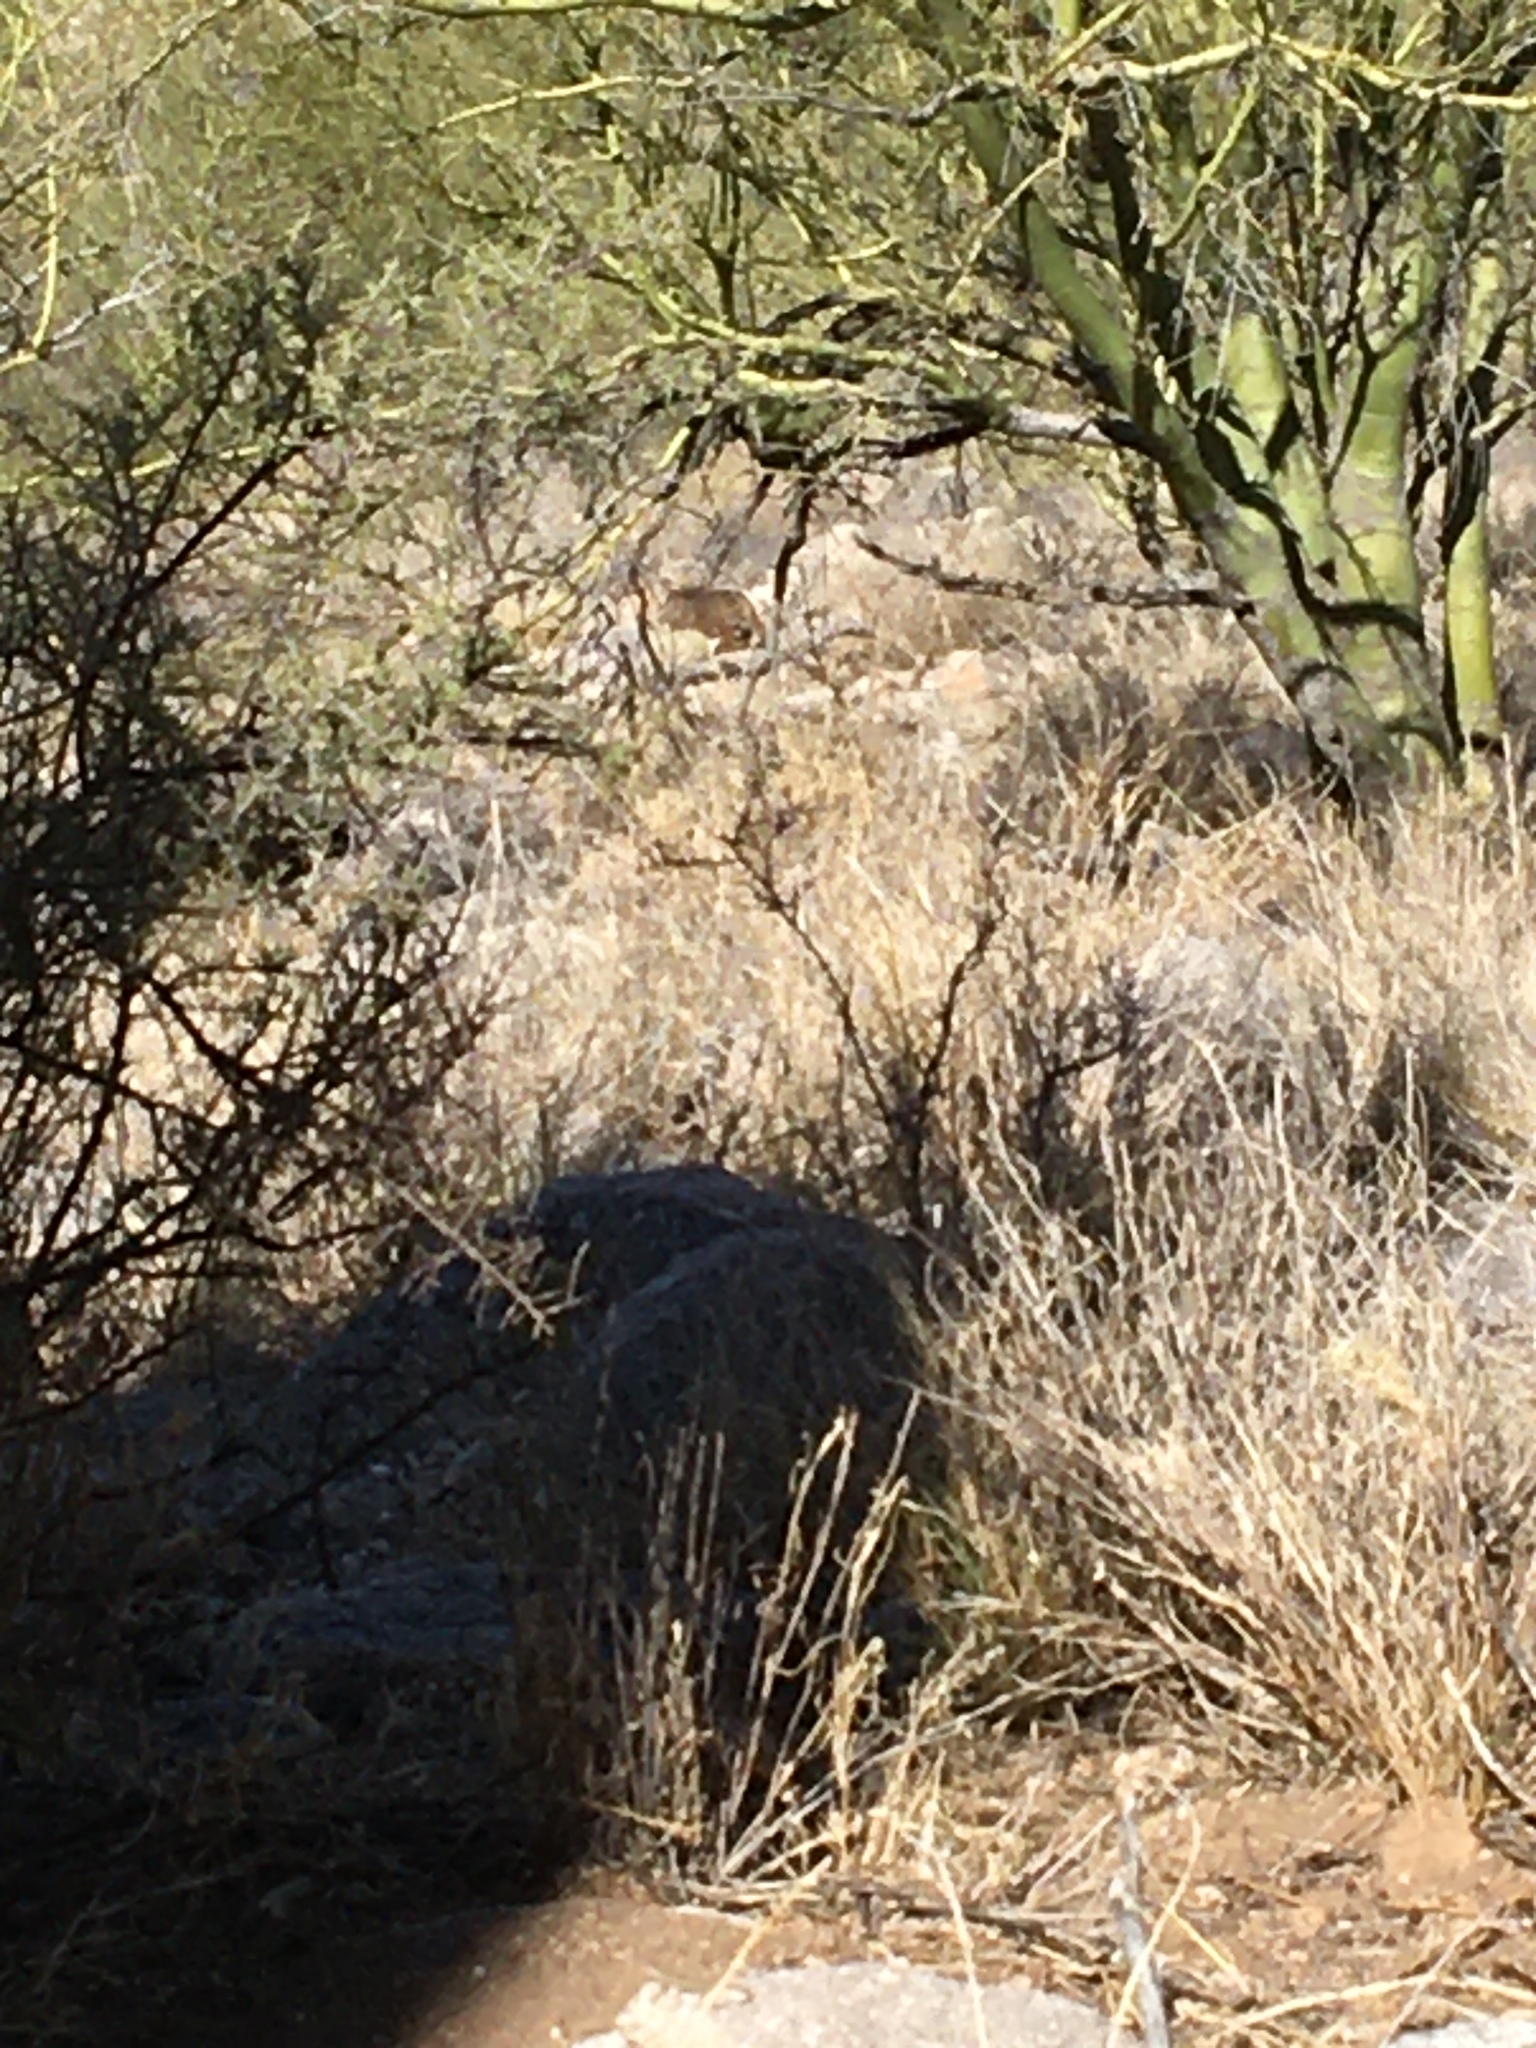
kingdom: Animalia
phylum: Chordata
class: Mammalia
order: Carnivora
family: Felidae
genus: Lynx
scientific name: Lynx rufus
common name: Bobcat
